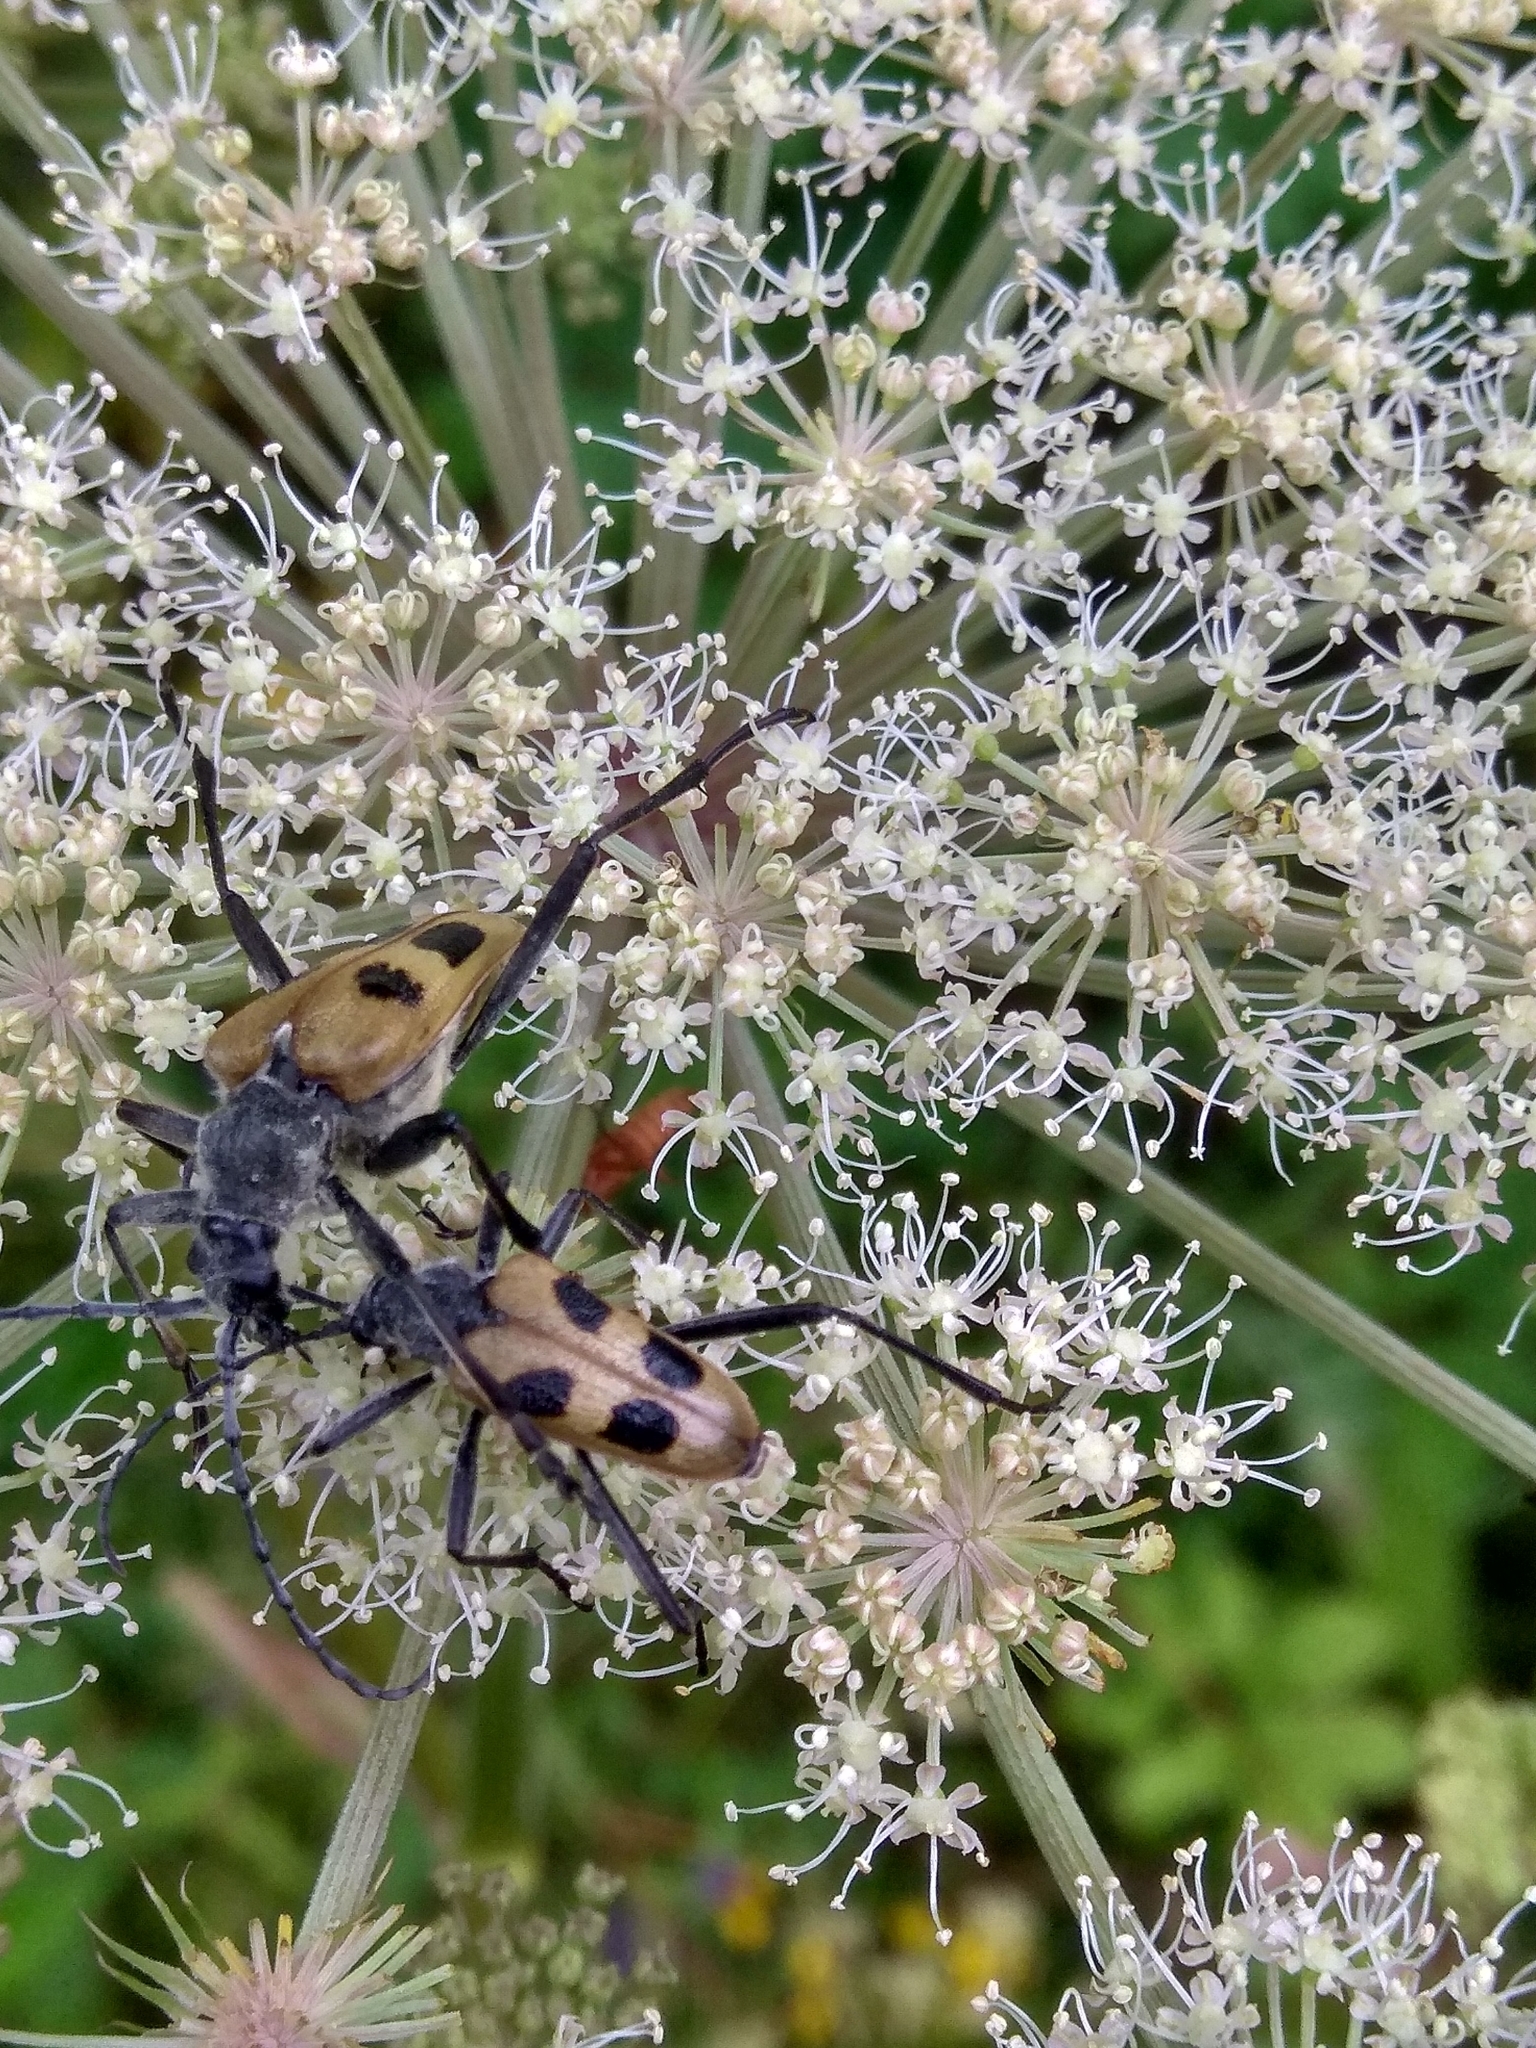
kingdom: Animalia
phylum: Arthropoda
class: Insecta
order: Coleoptera
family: Cerambycidae
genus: Pachyta
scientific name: Pachyta quadrimaculata
